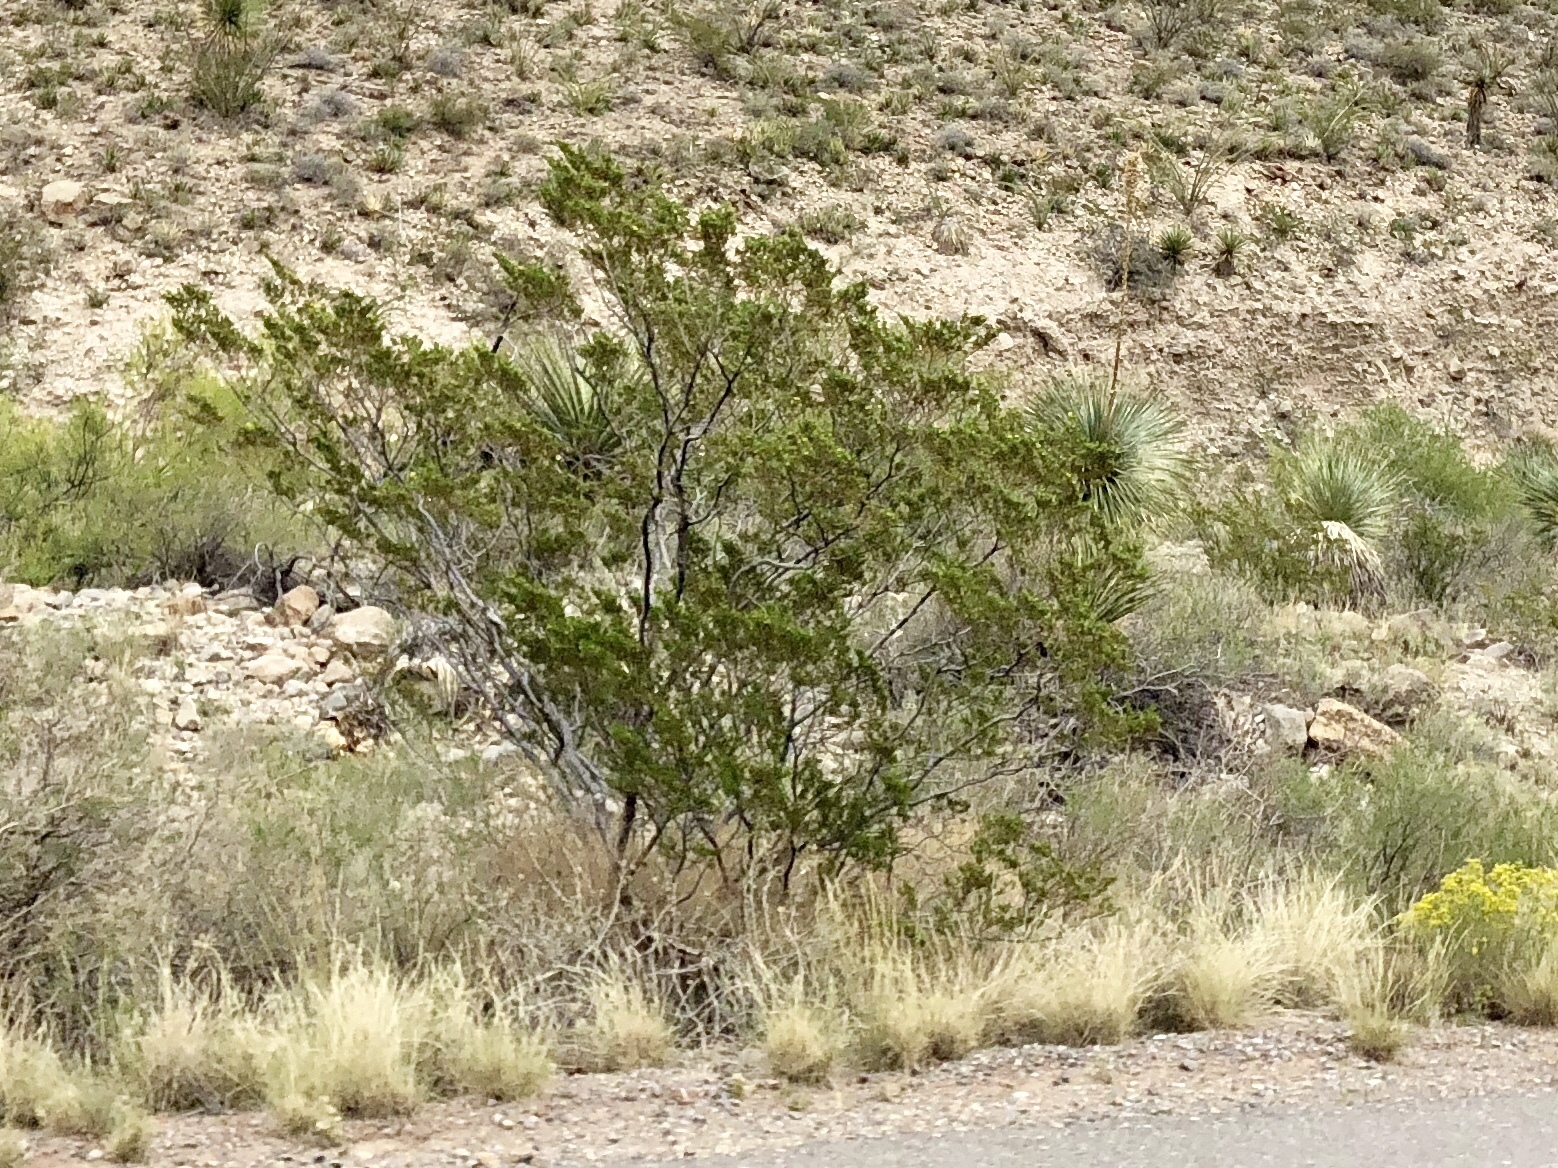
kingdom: Plantae
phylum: Tracheophyta
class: Magnoliopsida
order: Zygophyllales
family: Zygophyllaceae
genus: Larrea
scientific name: Larrea tridentata
